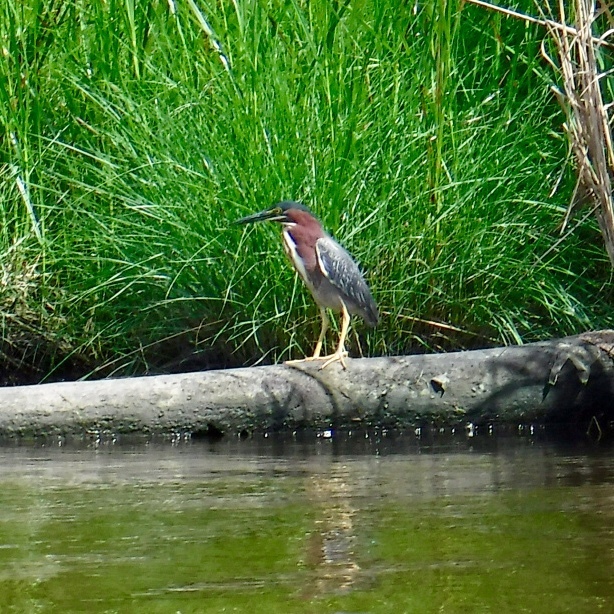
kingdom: Animalia
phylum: Chordata
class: Aves
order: Pelecaniformes
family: Ardeidae
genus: Butorides
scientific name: Butorides virescens
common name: Green heron
